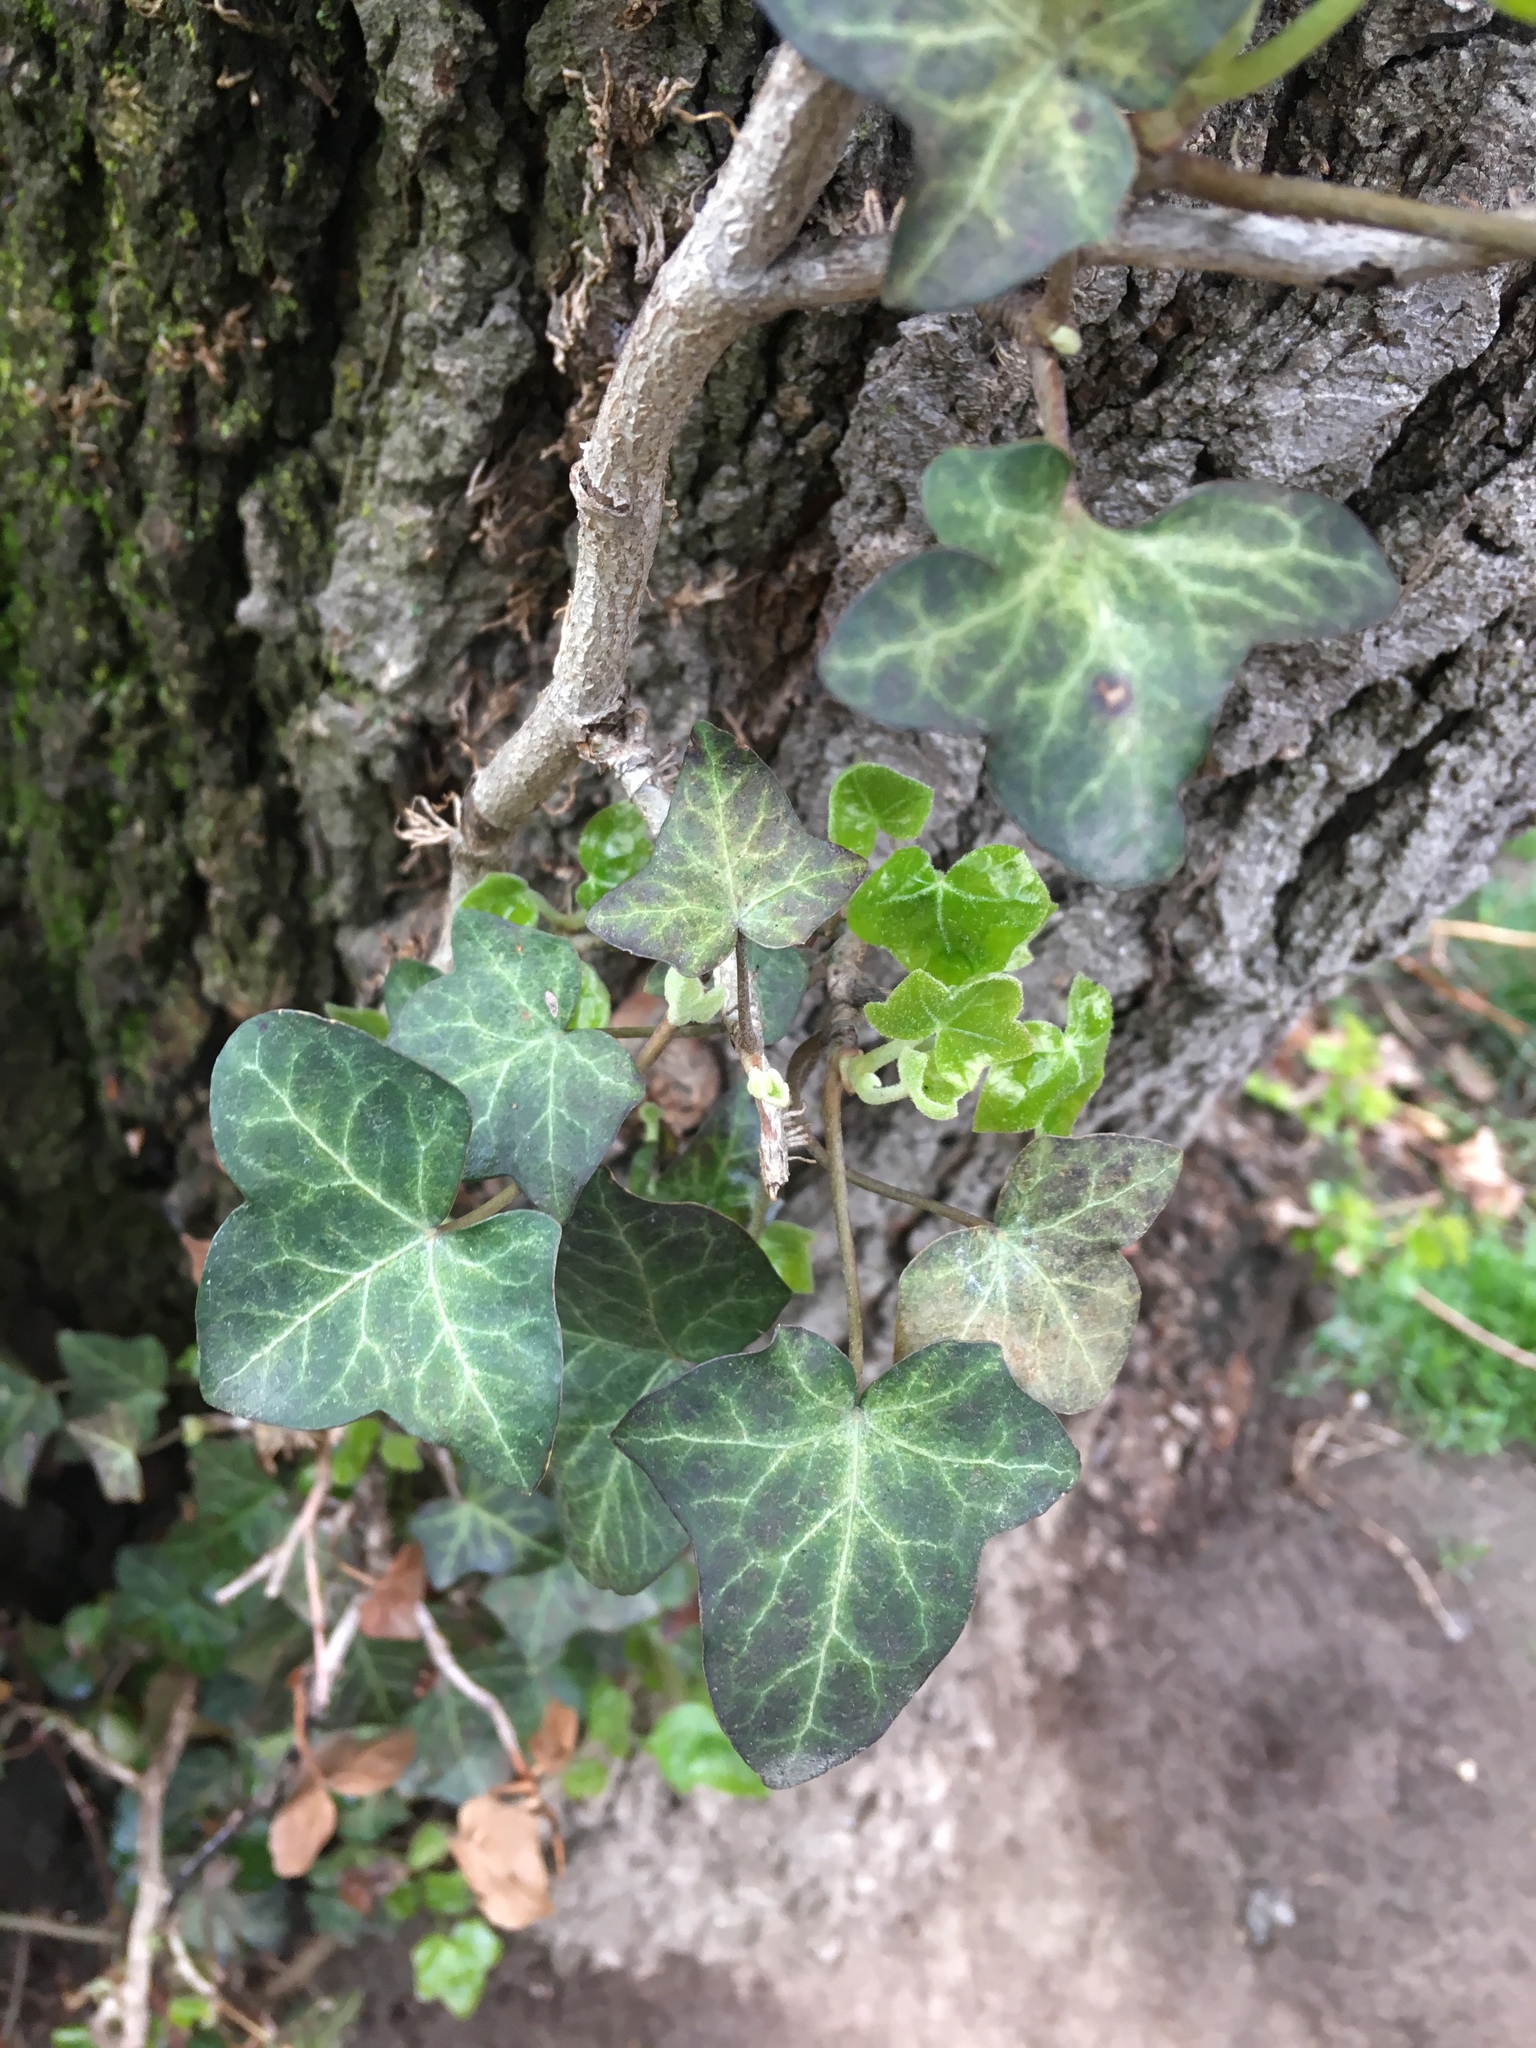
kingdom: Plantae
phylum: Tracheophyta
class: Magnoliopsida
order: Apiales
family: Araliaceae
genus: Hedera
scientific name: Hedera
